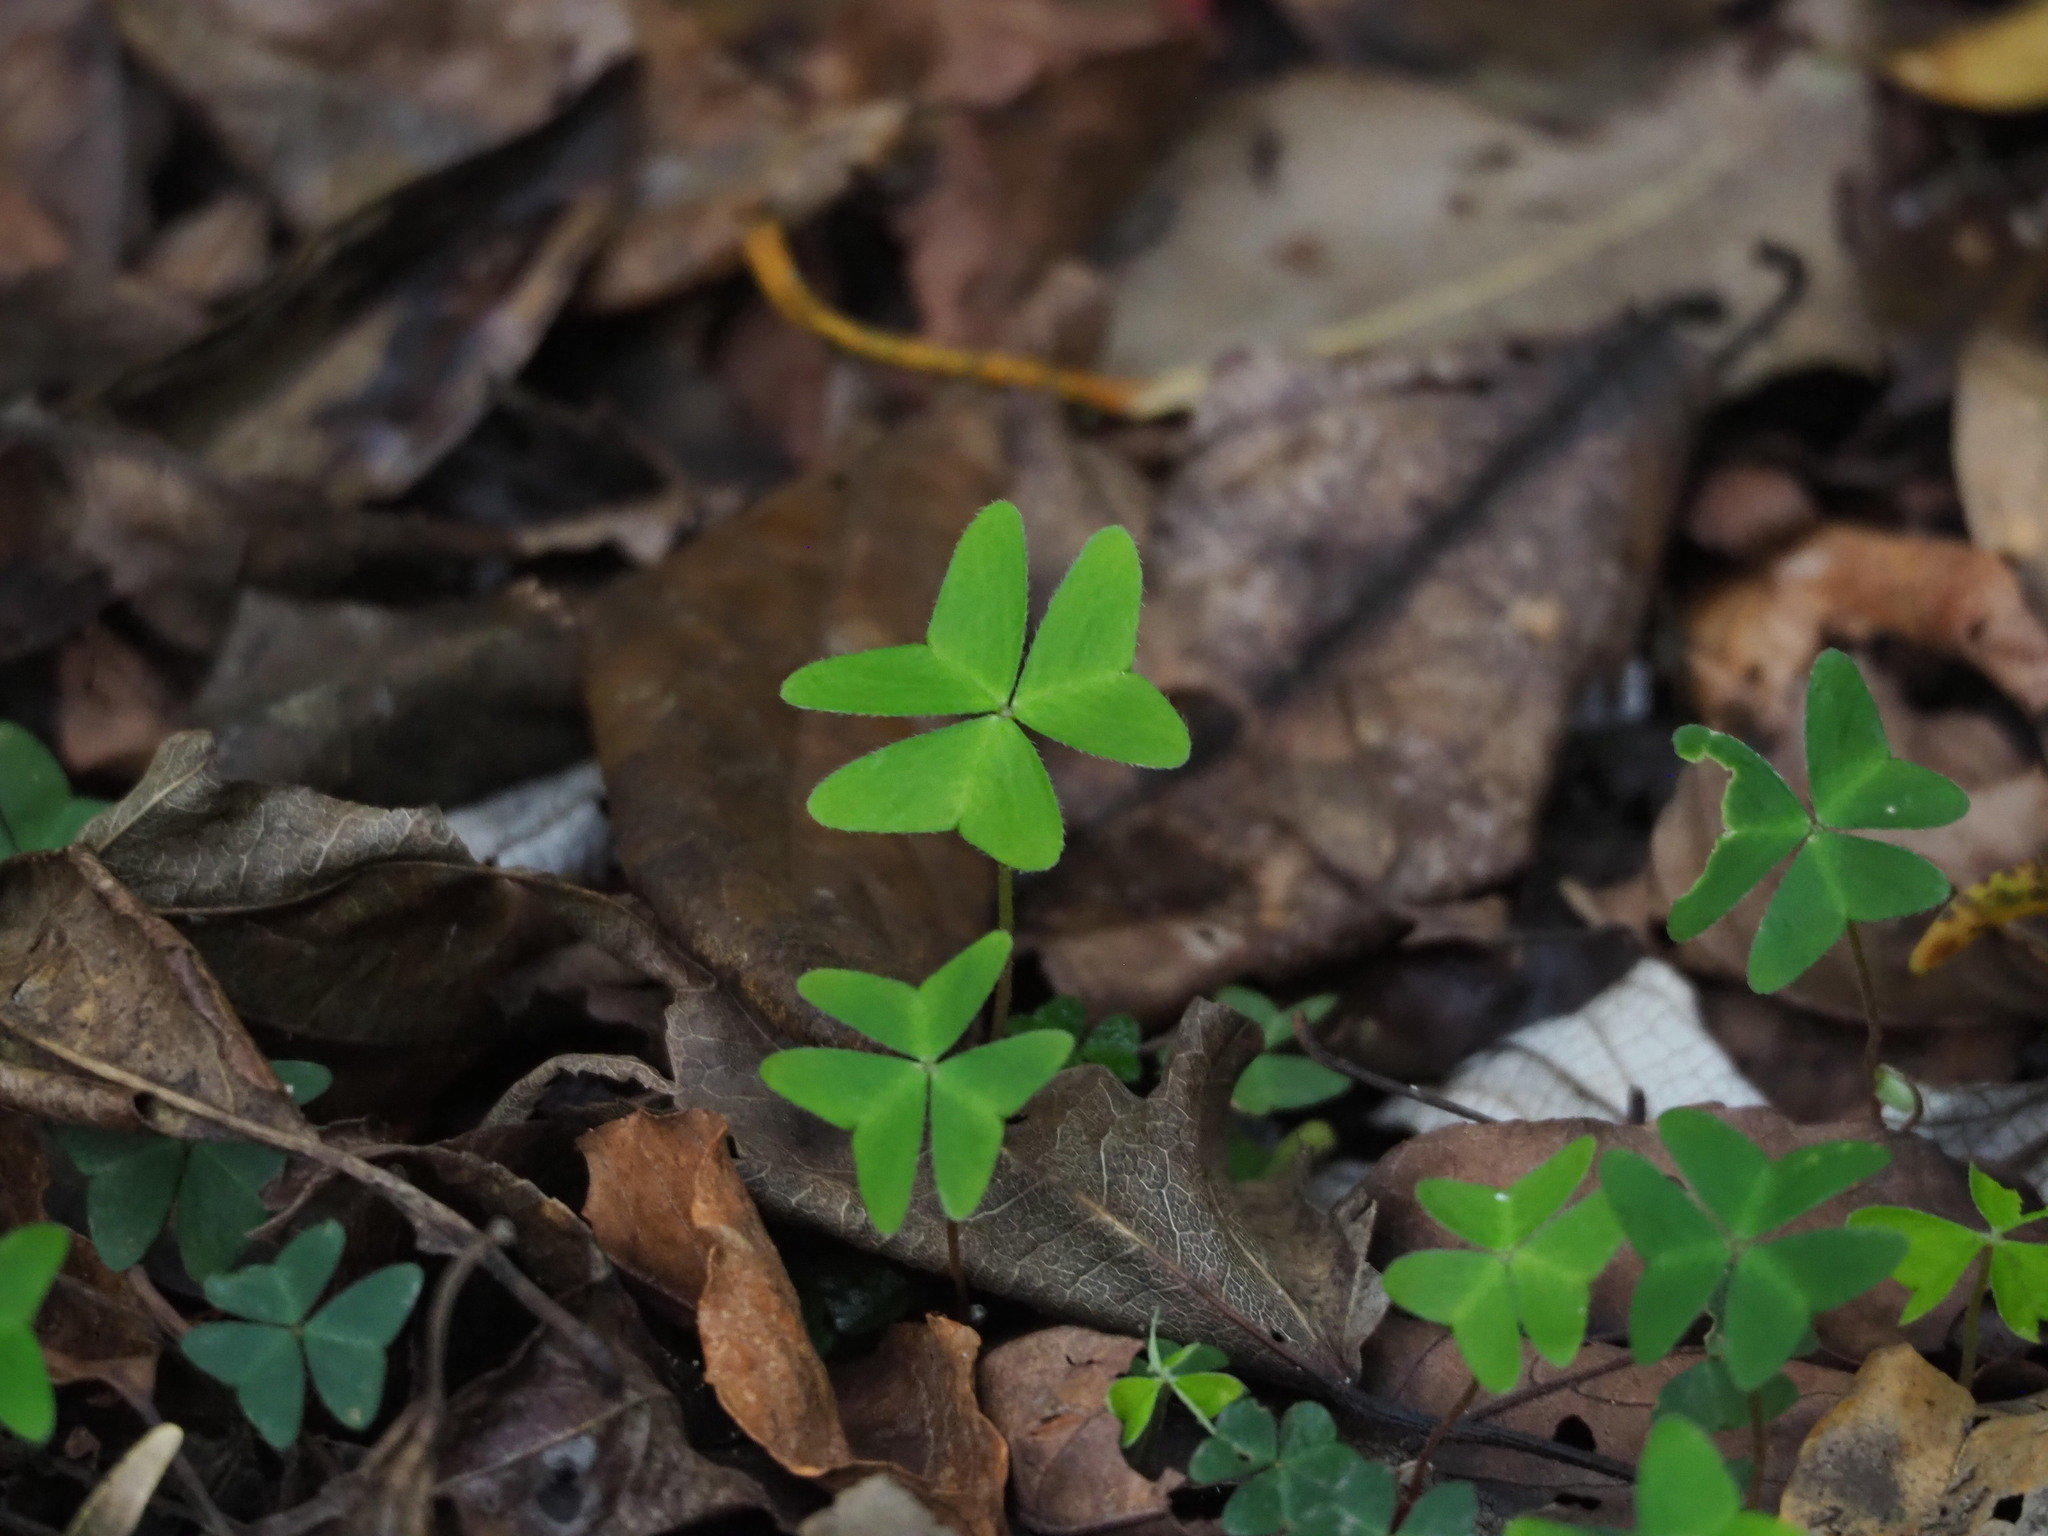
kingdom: Plantae
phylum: Tracheophyta
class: Magnoliopsida
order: Oxalidales
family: Oxalidaceae
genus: Oxalis
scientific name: Oxalis griffithii
